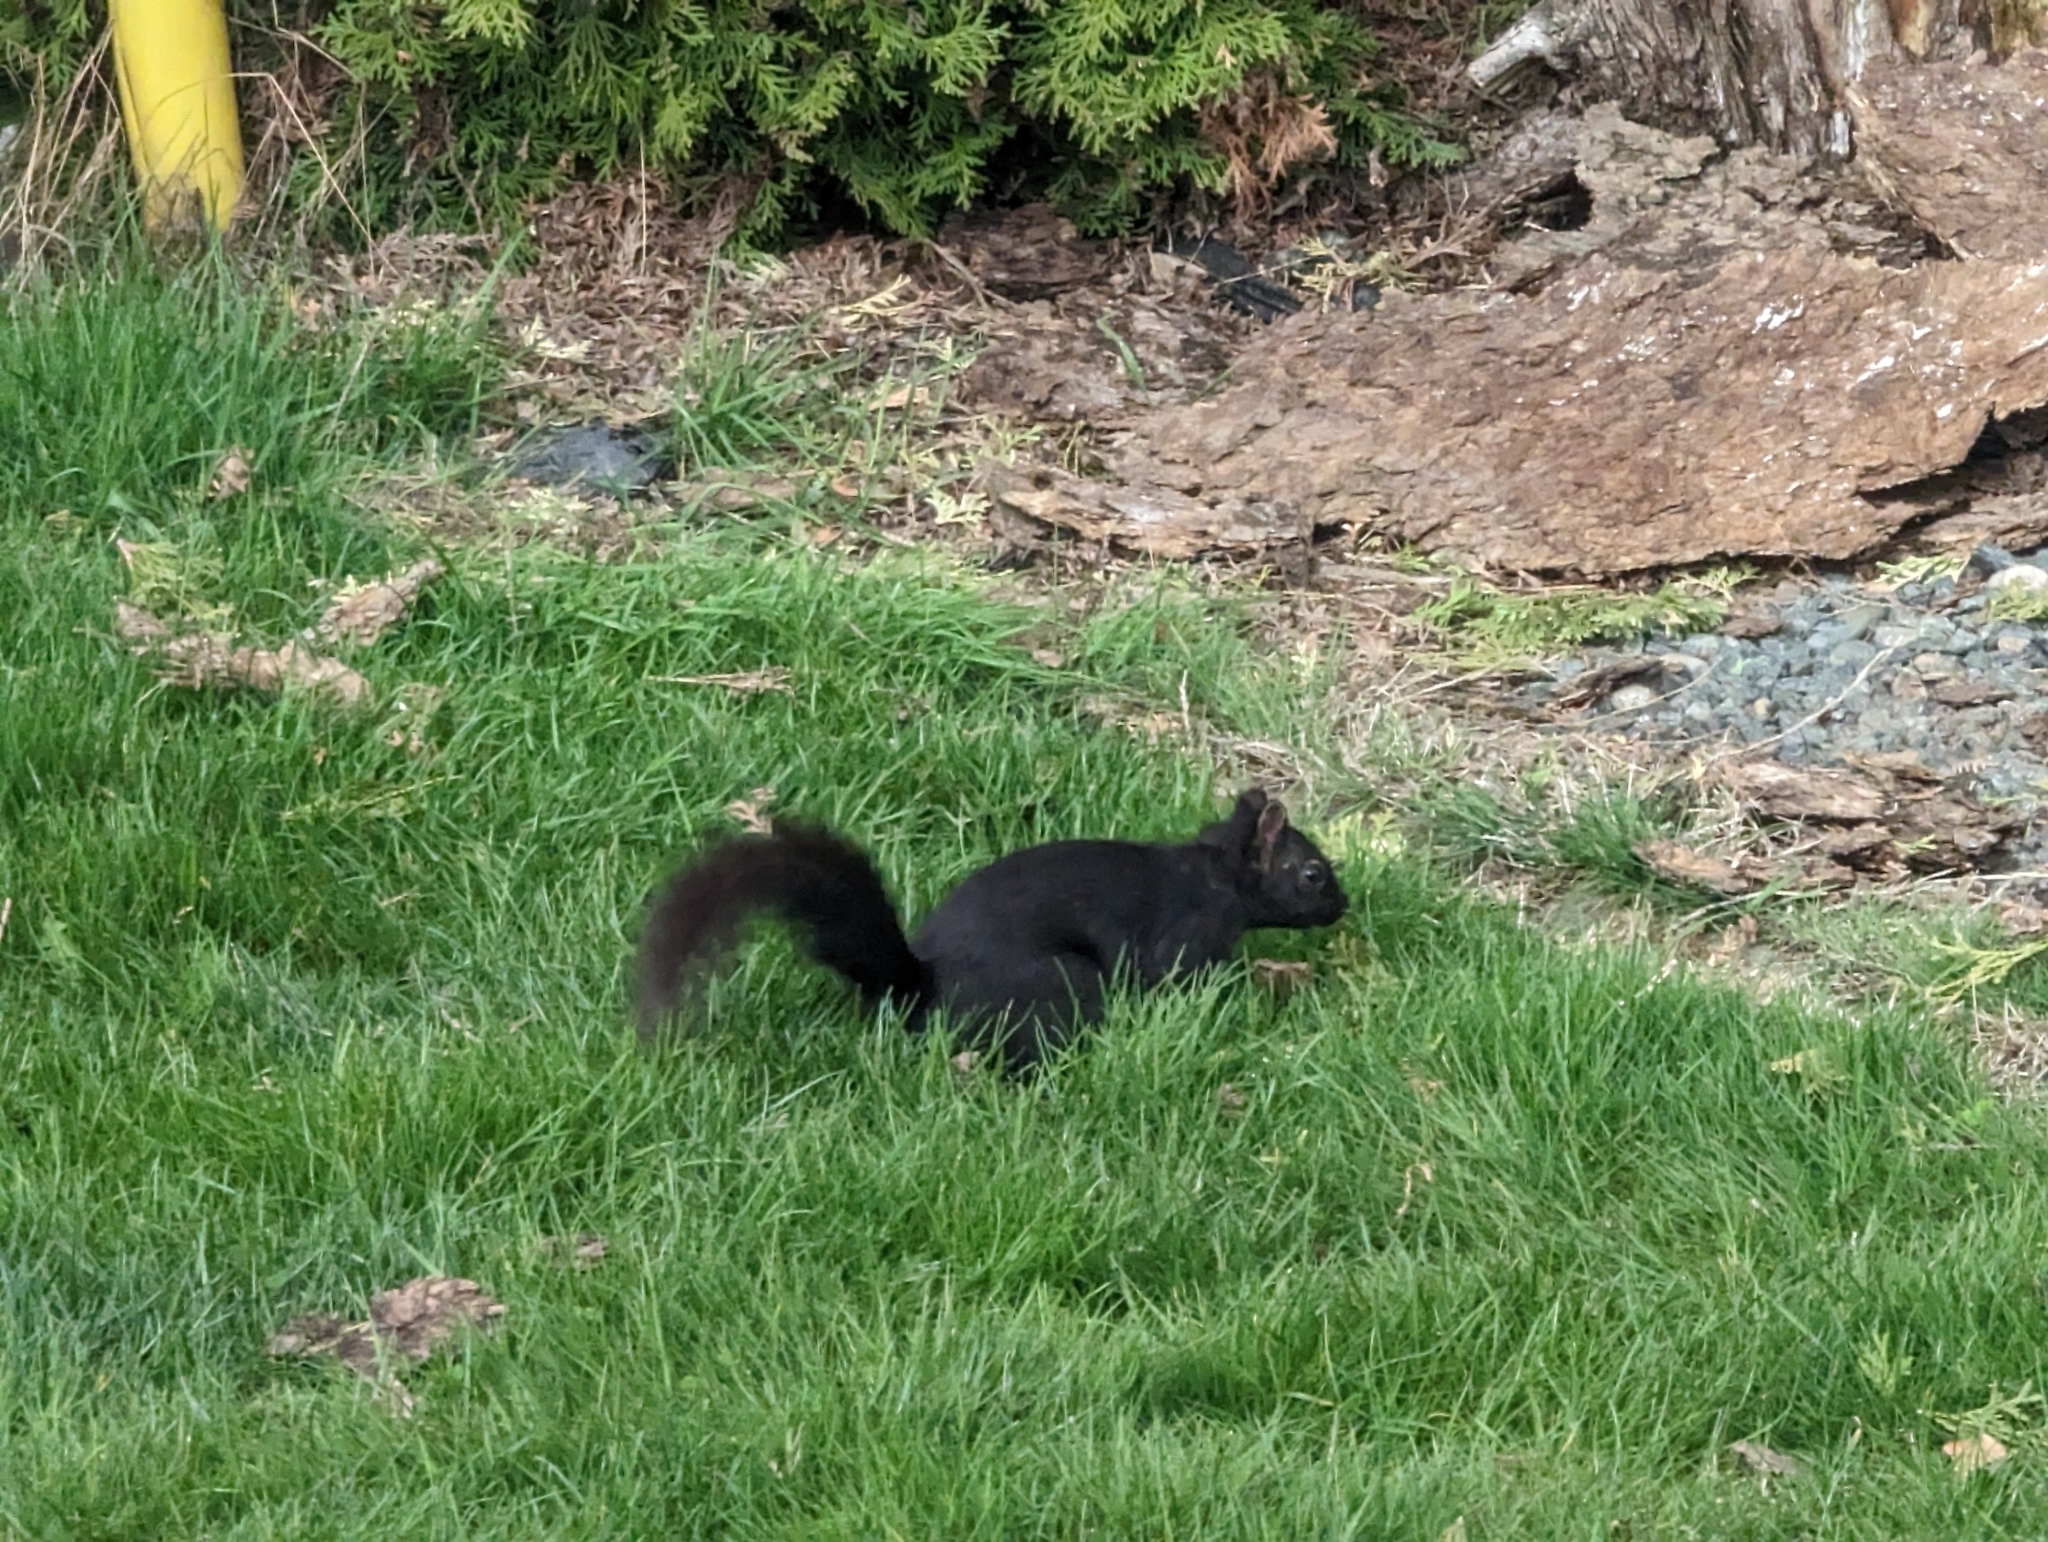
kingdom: Animalia
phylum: Chordata
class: Mammalia
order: Rodentia
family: Sciuridae
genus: Sciurus
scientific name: Sciurus carolinensis
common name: Eastern gray squirrel
